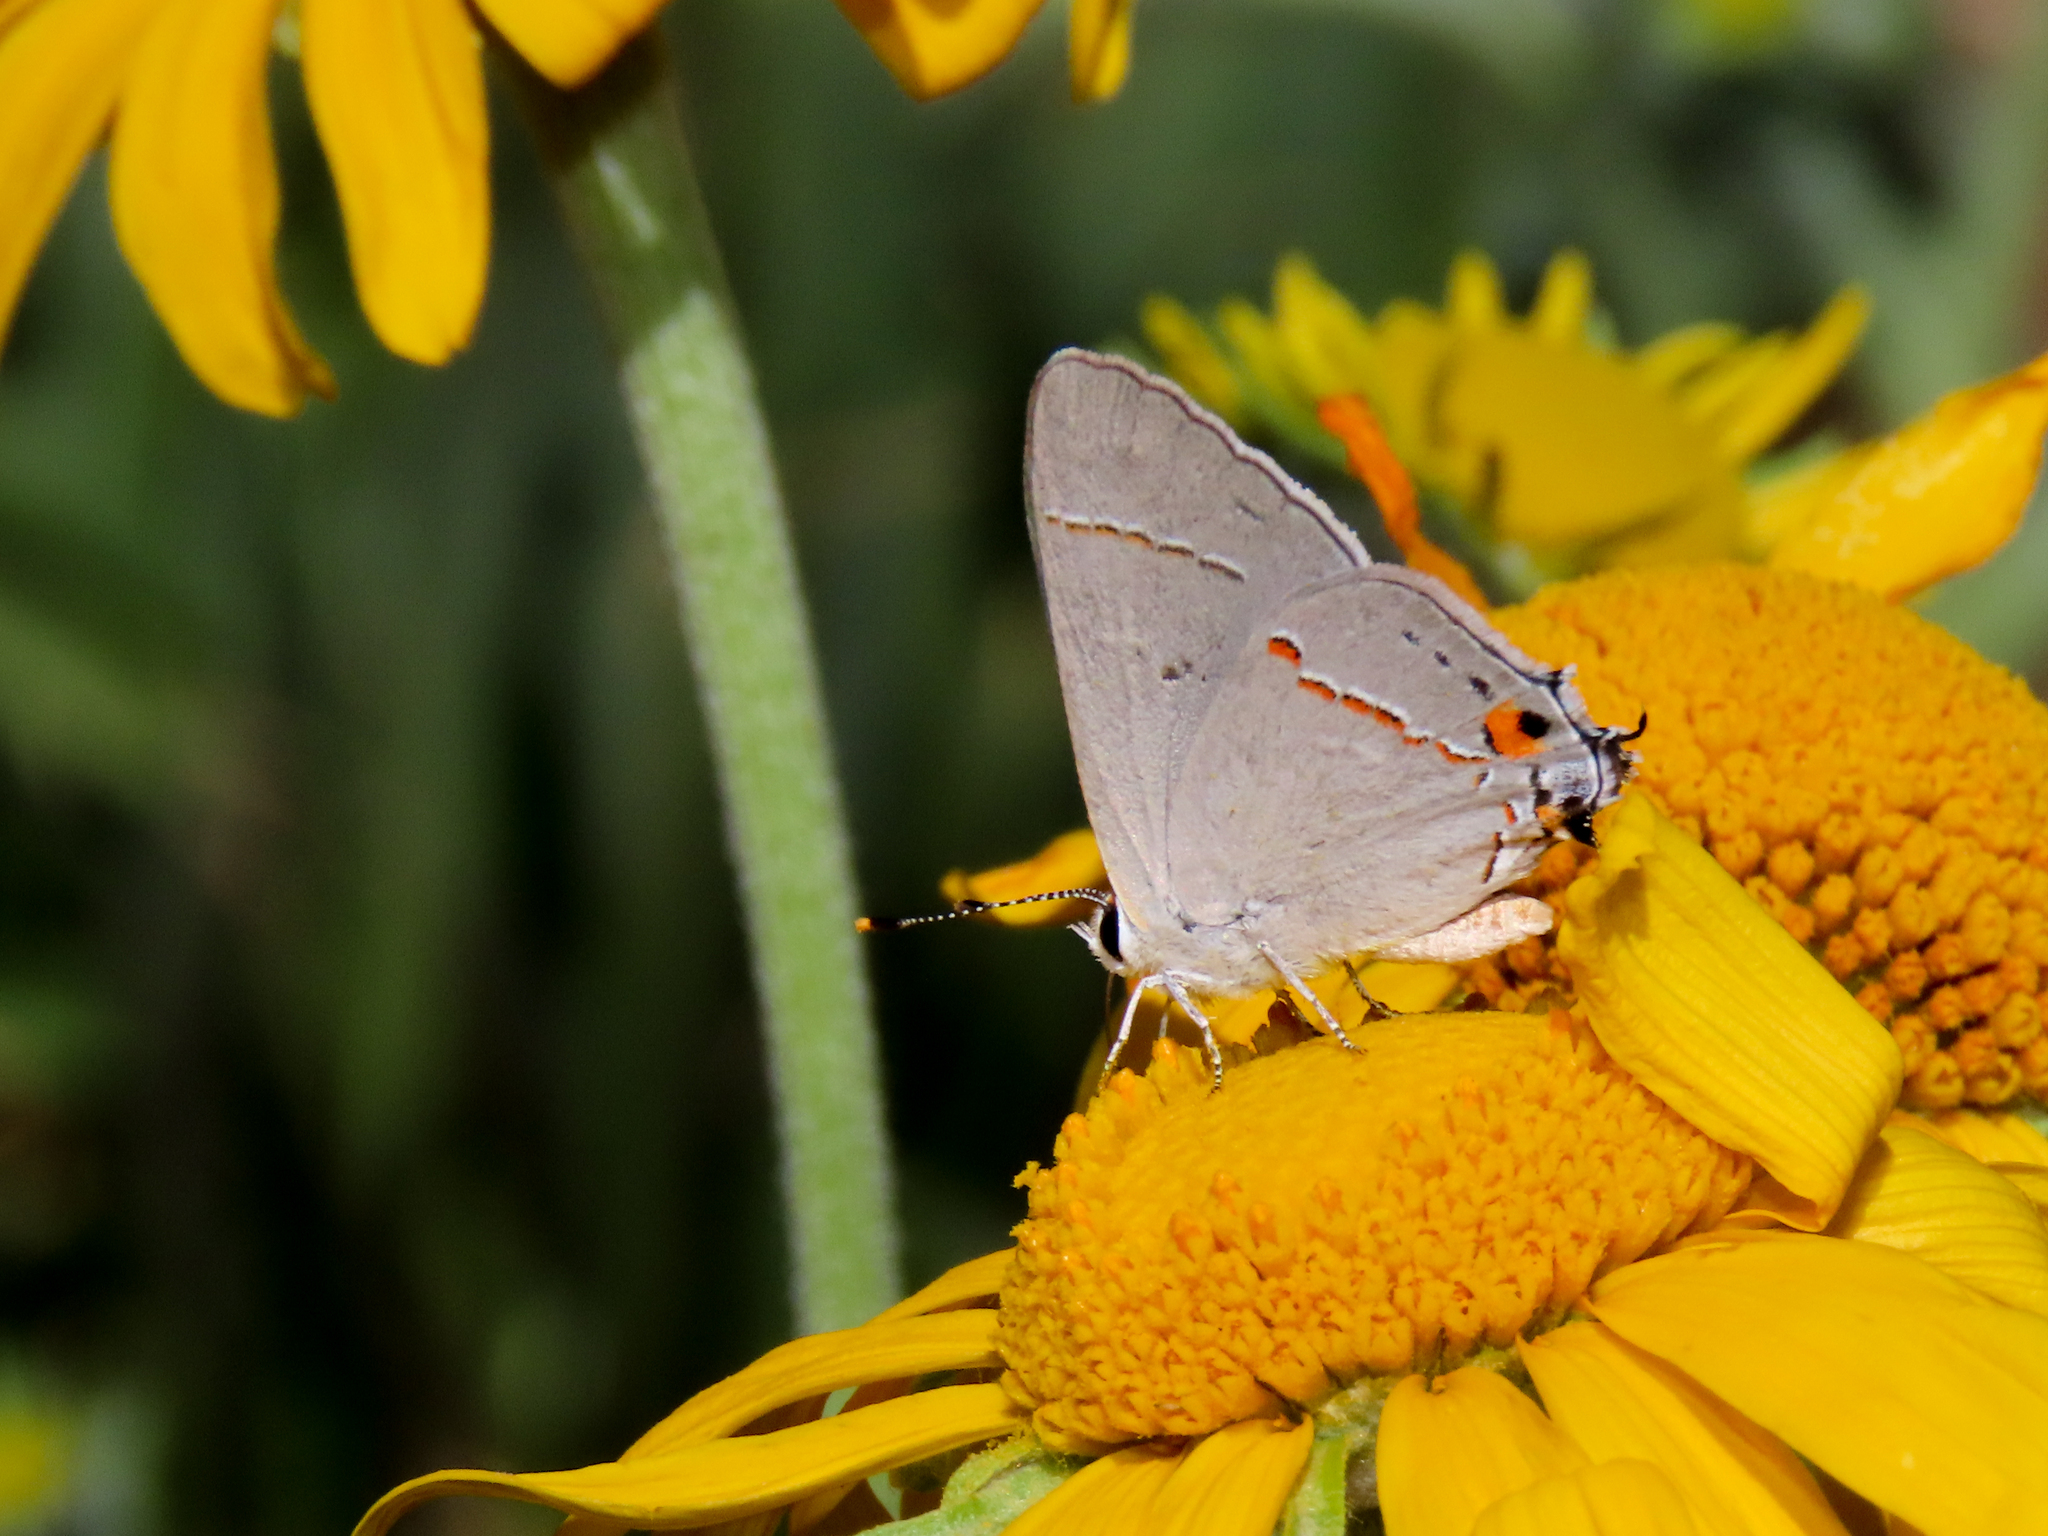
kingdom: Animalia
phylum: Arthropoda
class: Insecta
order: Lepidoptera
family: Lycaenidae
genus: Strymon
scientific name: Strymon melinus
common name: Gray hairstreak
